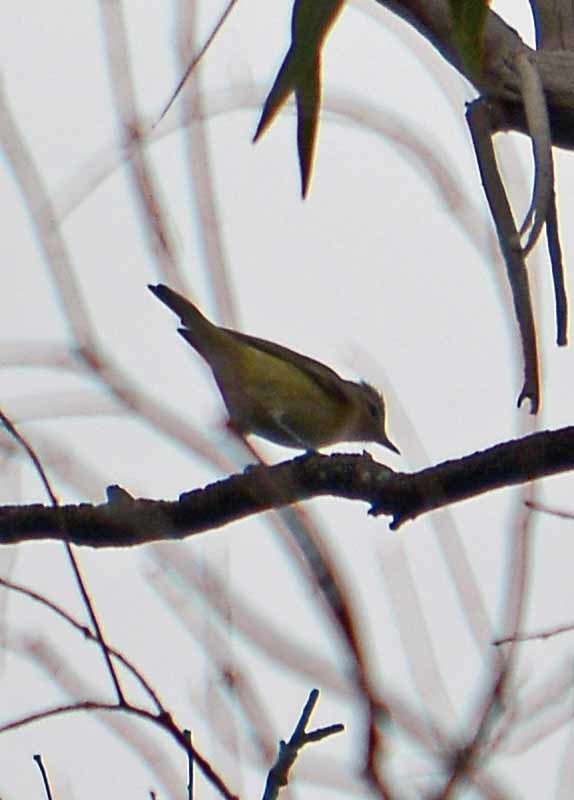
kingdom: Animalia
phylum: Chordata
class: Aves
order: Passeriformes
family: Vireonidae
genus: Vireo
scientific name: Vireo gilvus
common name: Warbling vireo
